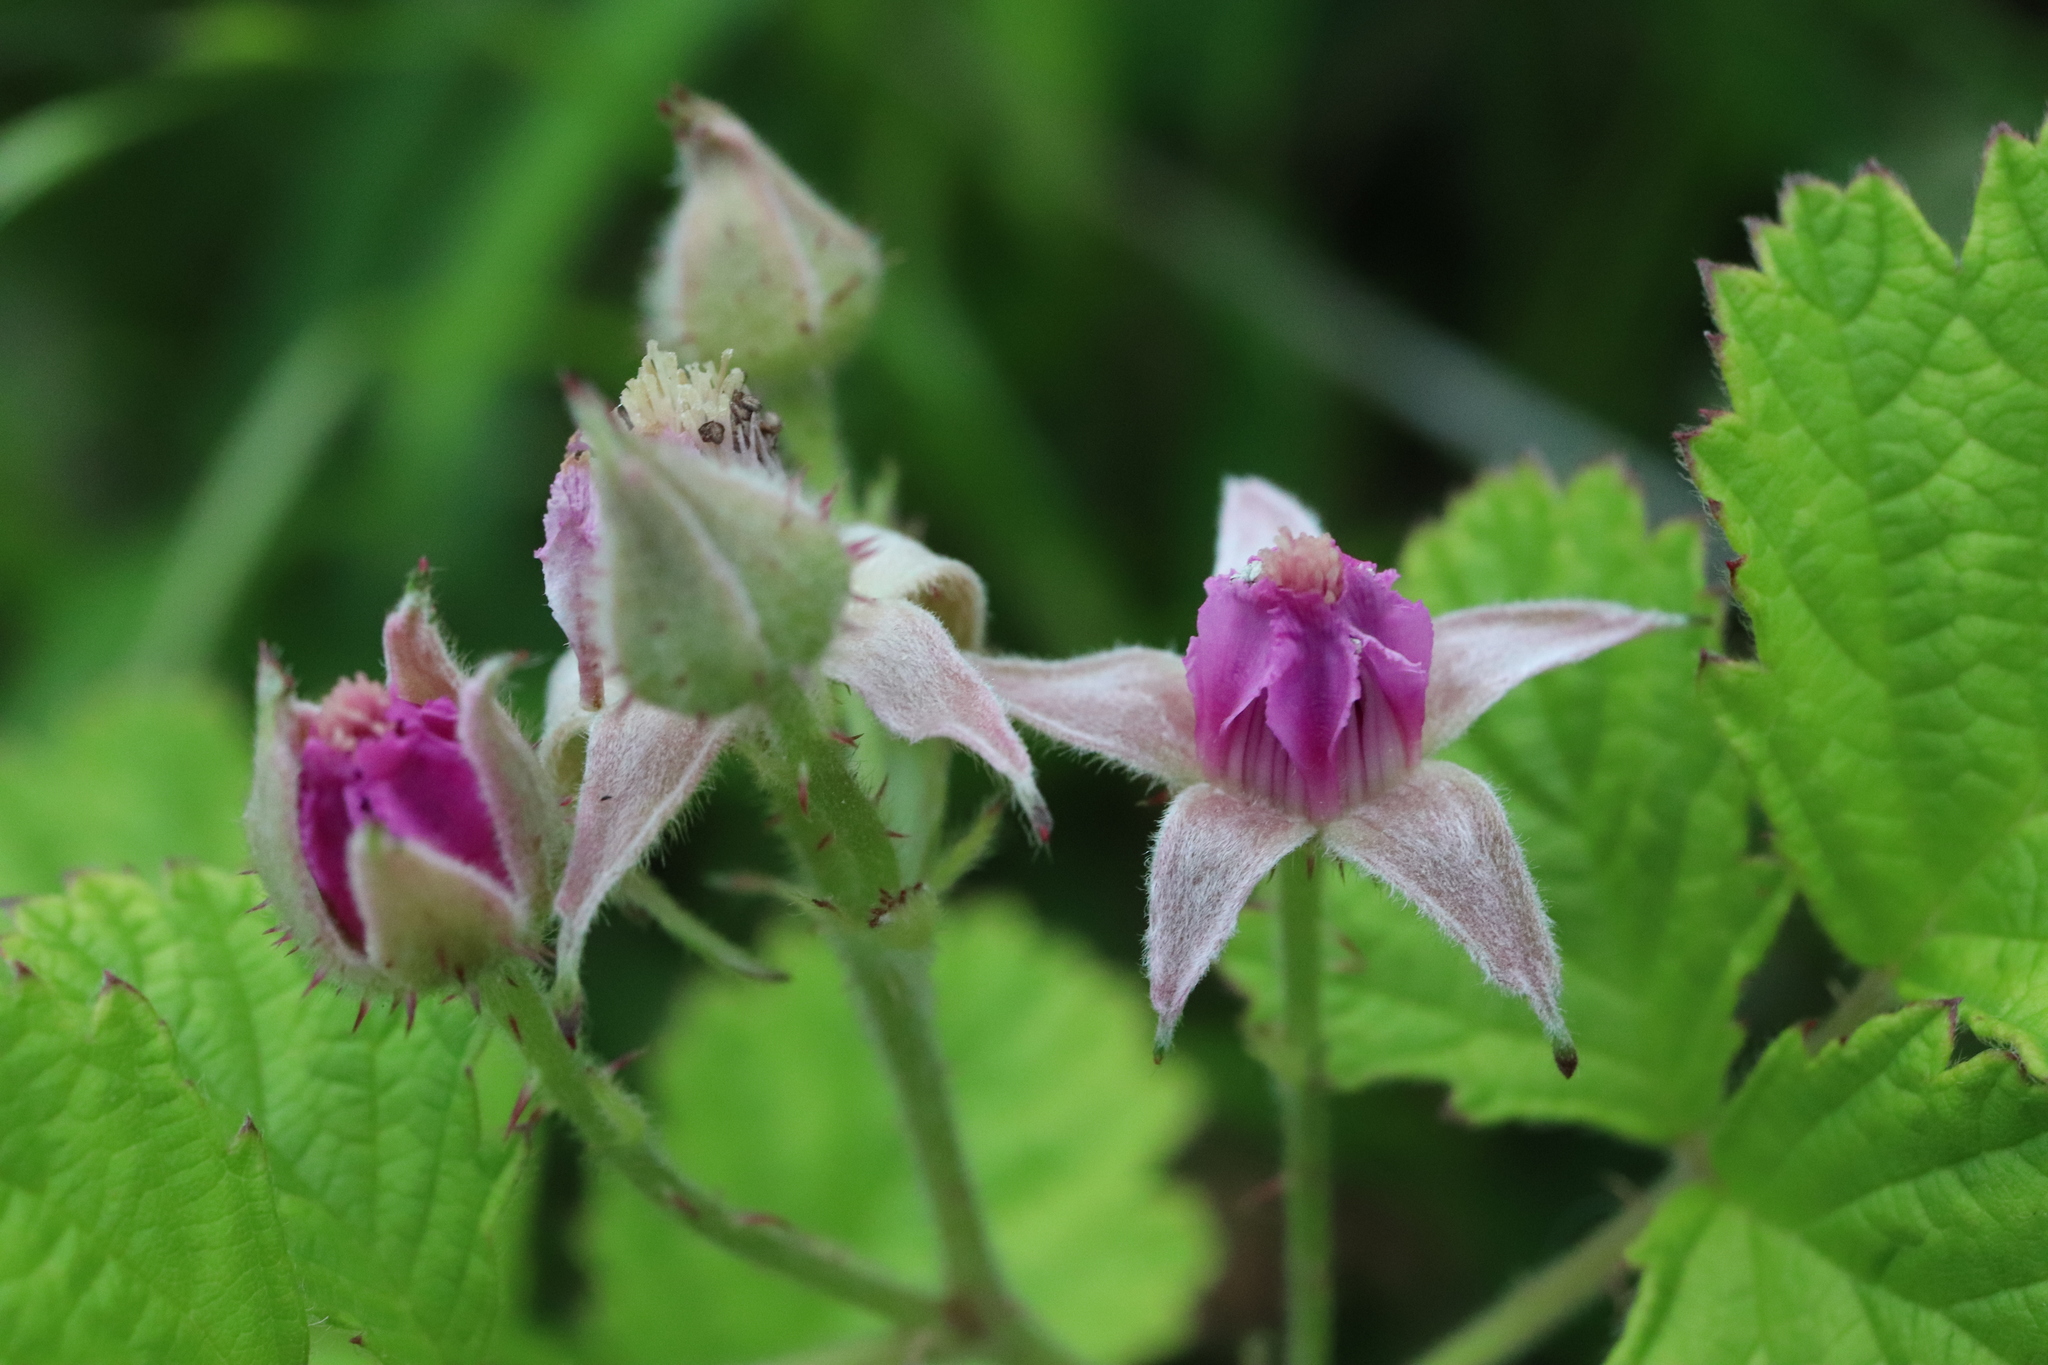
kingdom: Plantae
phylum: Tracheophyta
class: Magnoliopsida
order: Rosales
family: Rosaceae
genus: Rubus
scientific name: Rubus parvifolius
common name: Threeleaf blackberry
